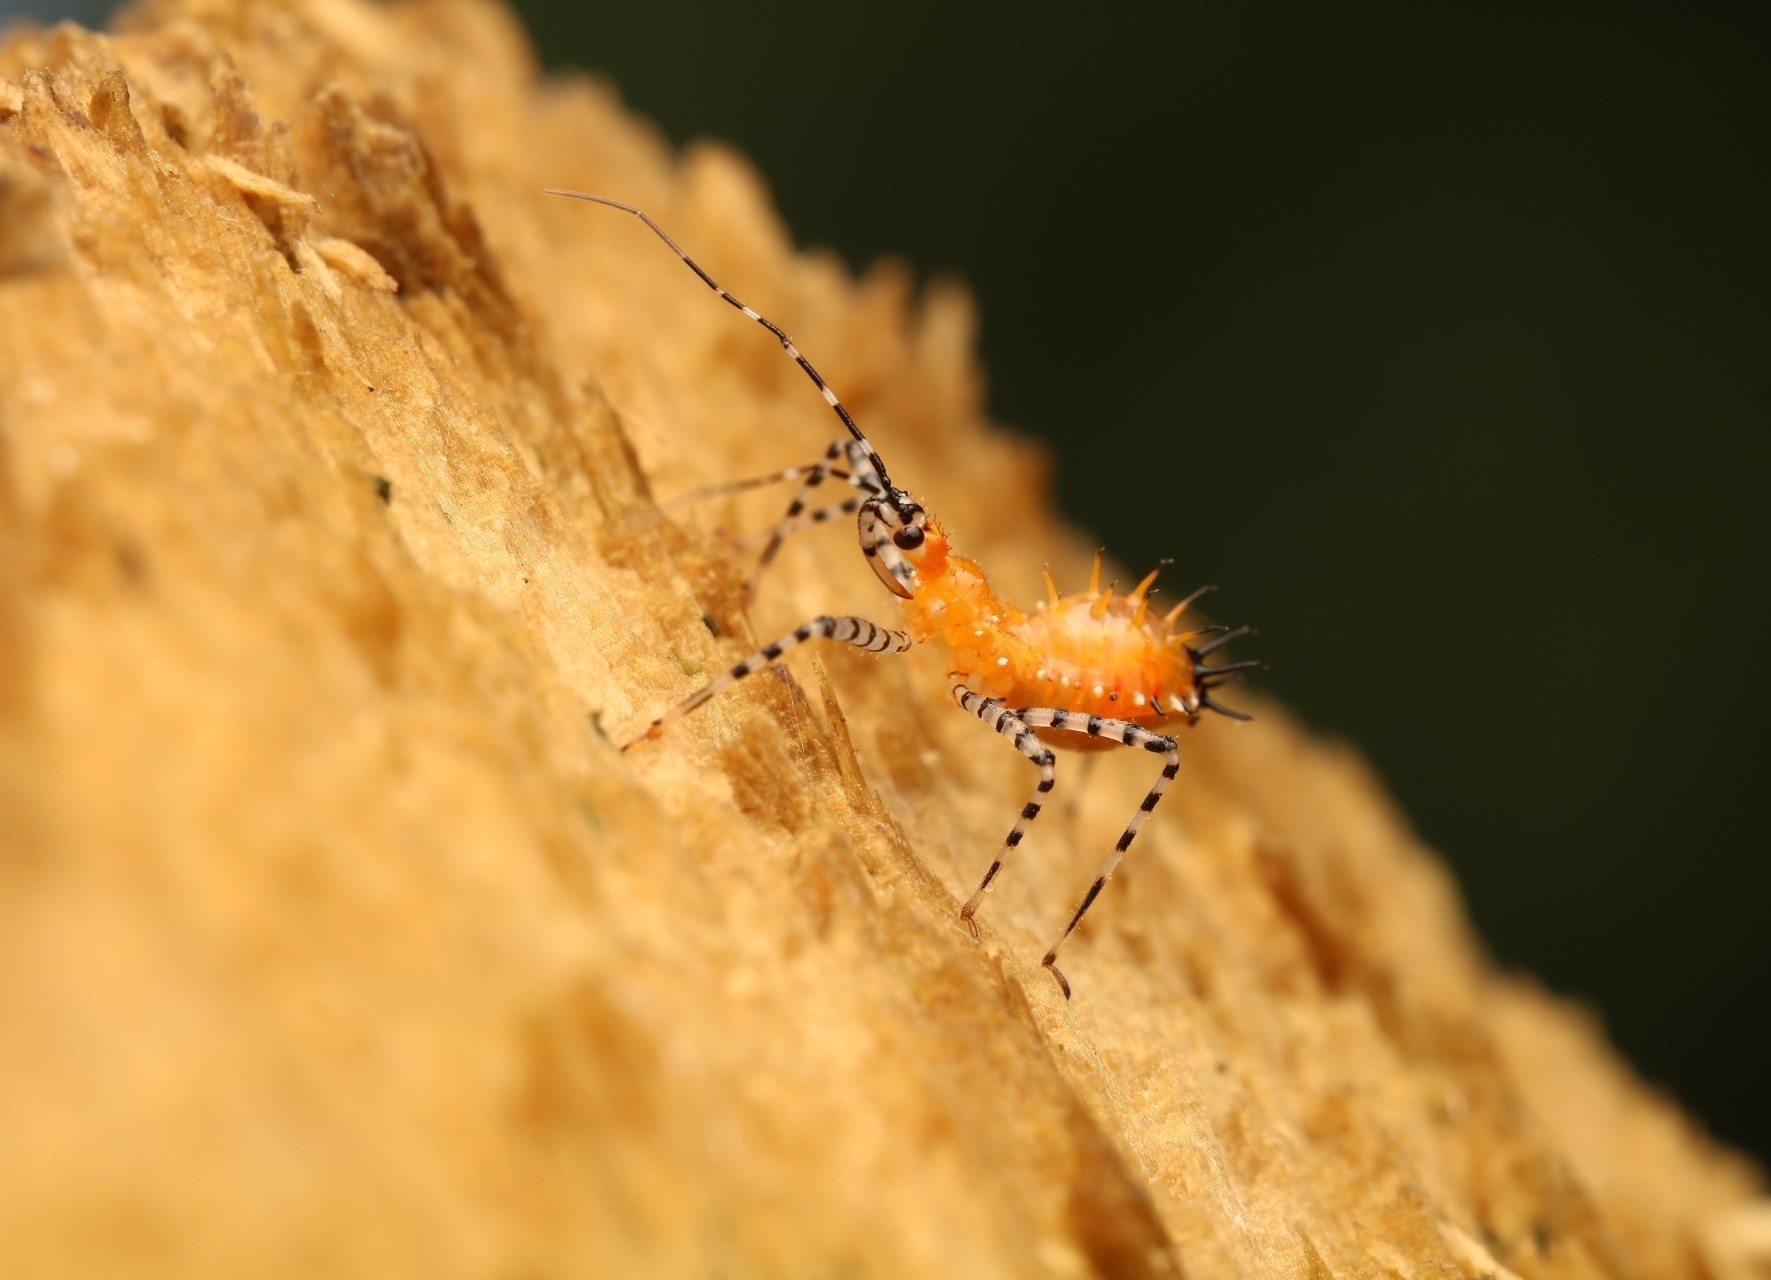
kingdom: Animalia
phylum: Arthropoda
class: Insecta
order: Hemiptera
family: Reduviidae
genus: Pselliopus
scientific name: Pselliopus barberi
